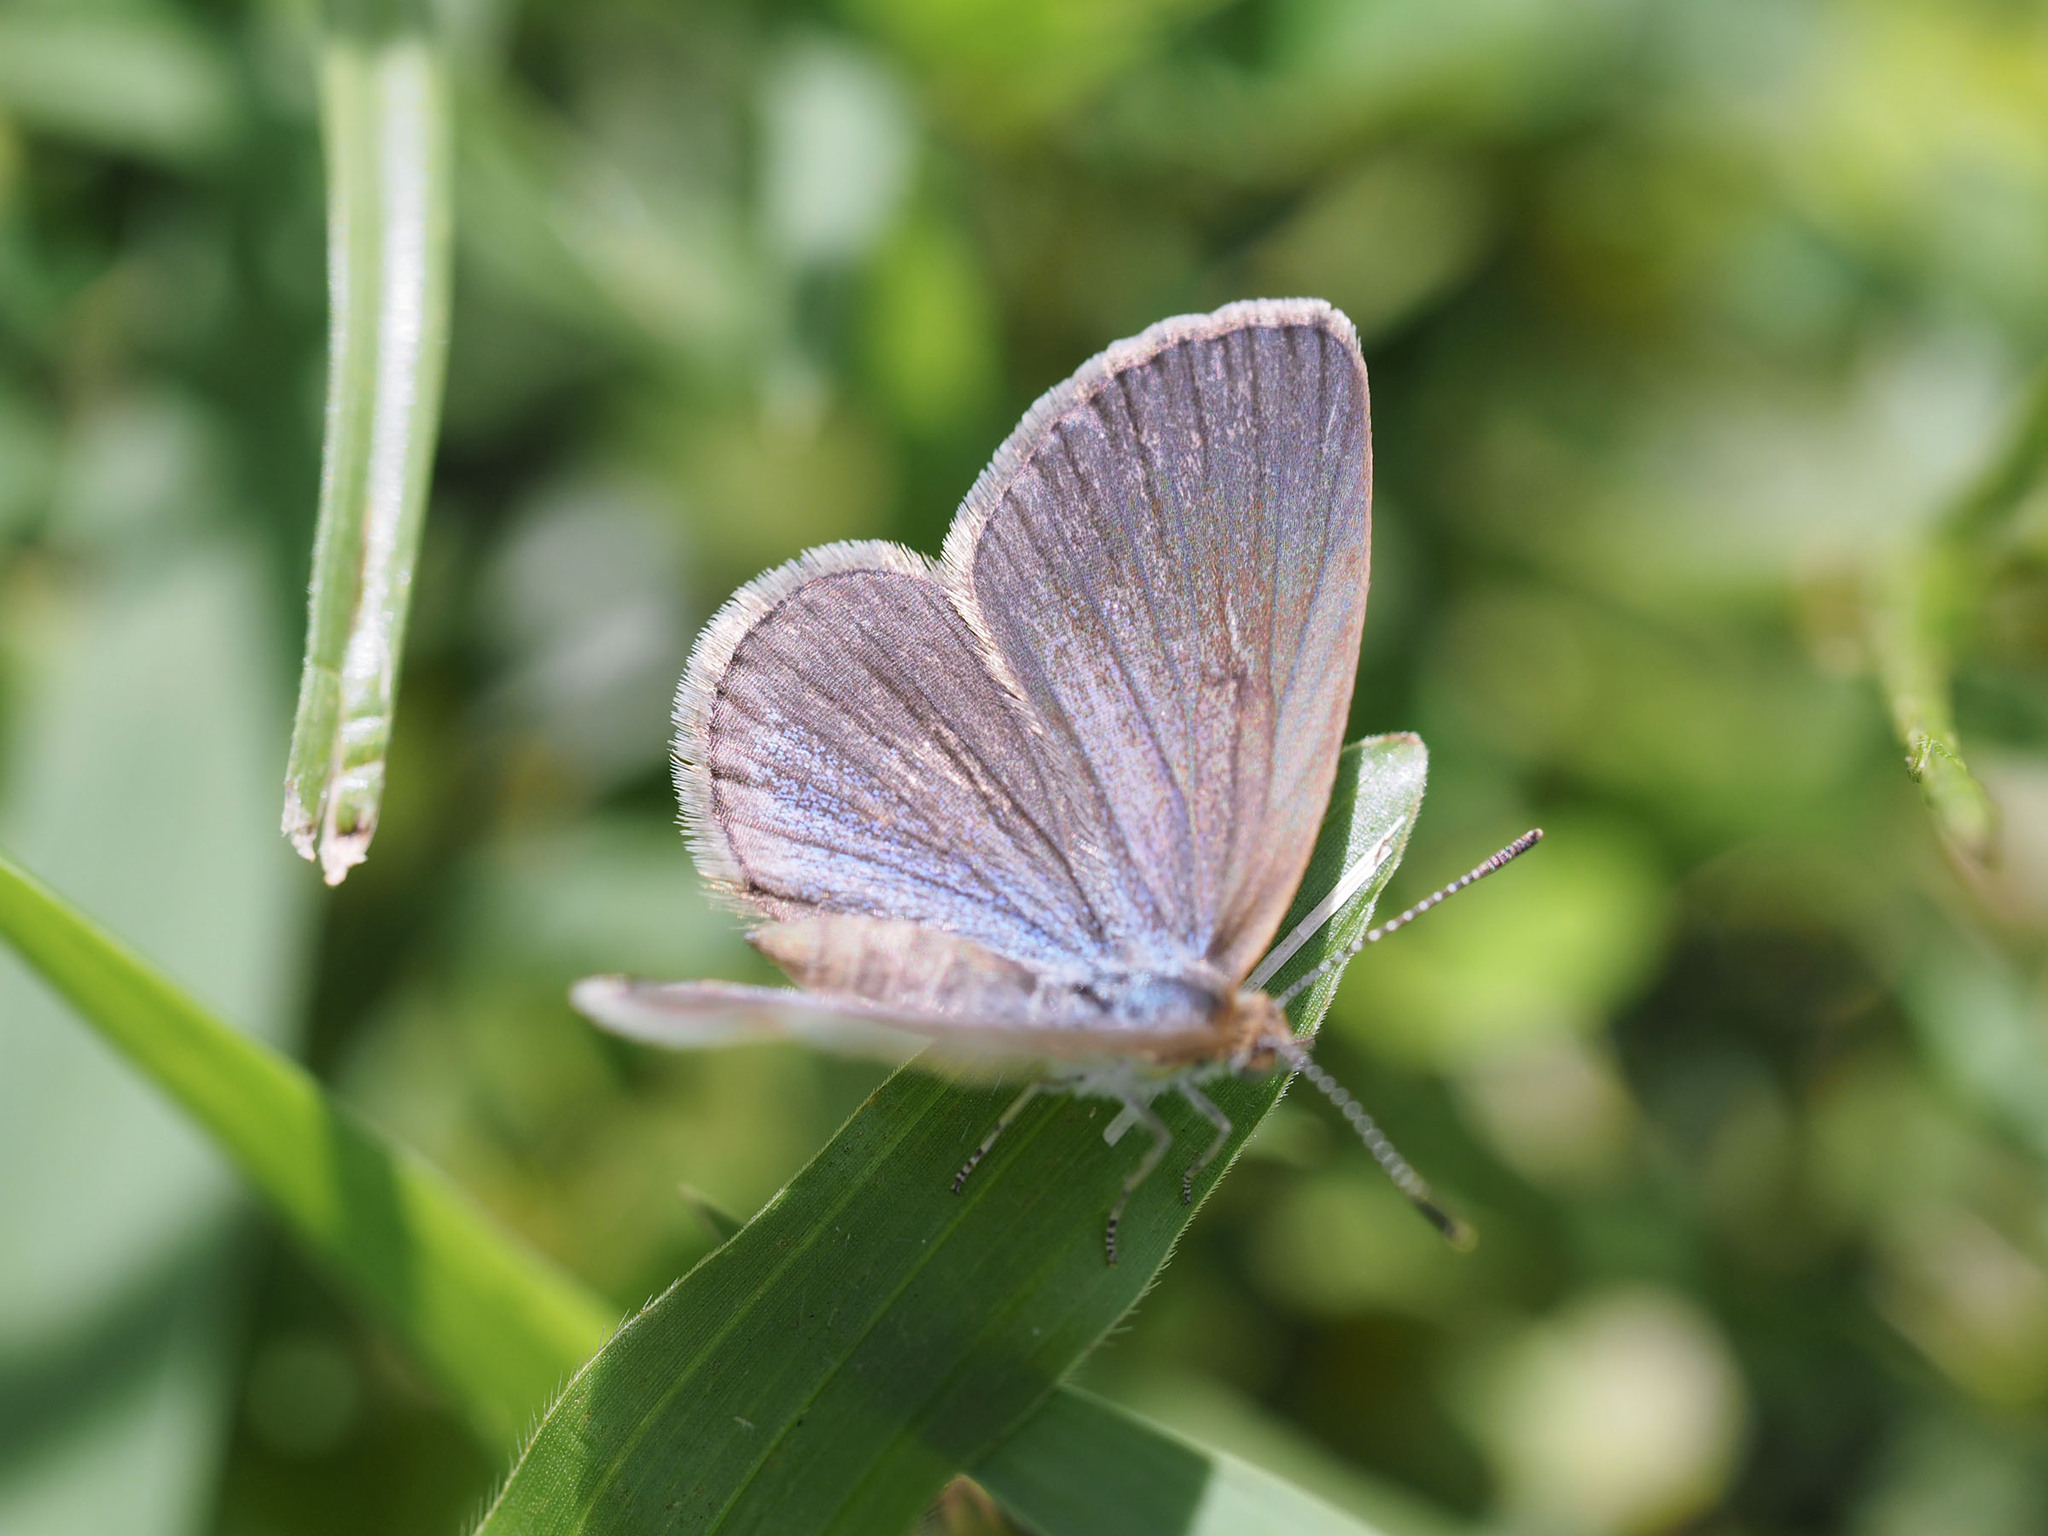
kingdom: Animalia
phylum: Arthropoda
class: Insecta
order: Lepidoptera
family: Lycaenidae
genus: Zizina
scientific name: Zizina otis
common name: Lesser grass blue
